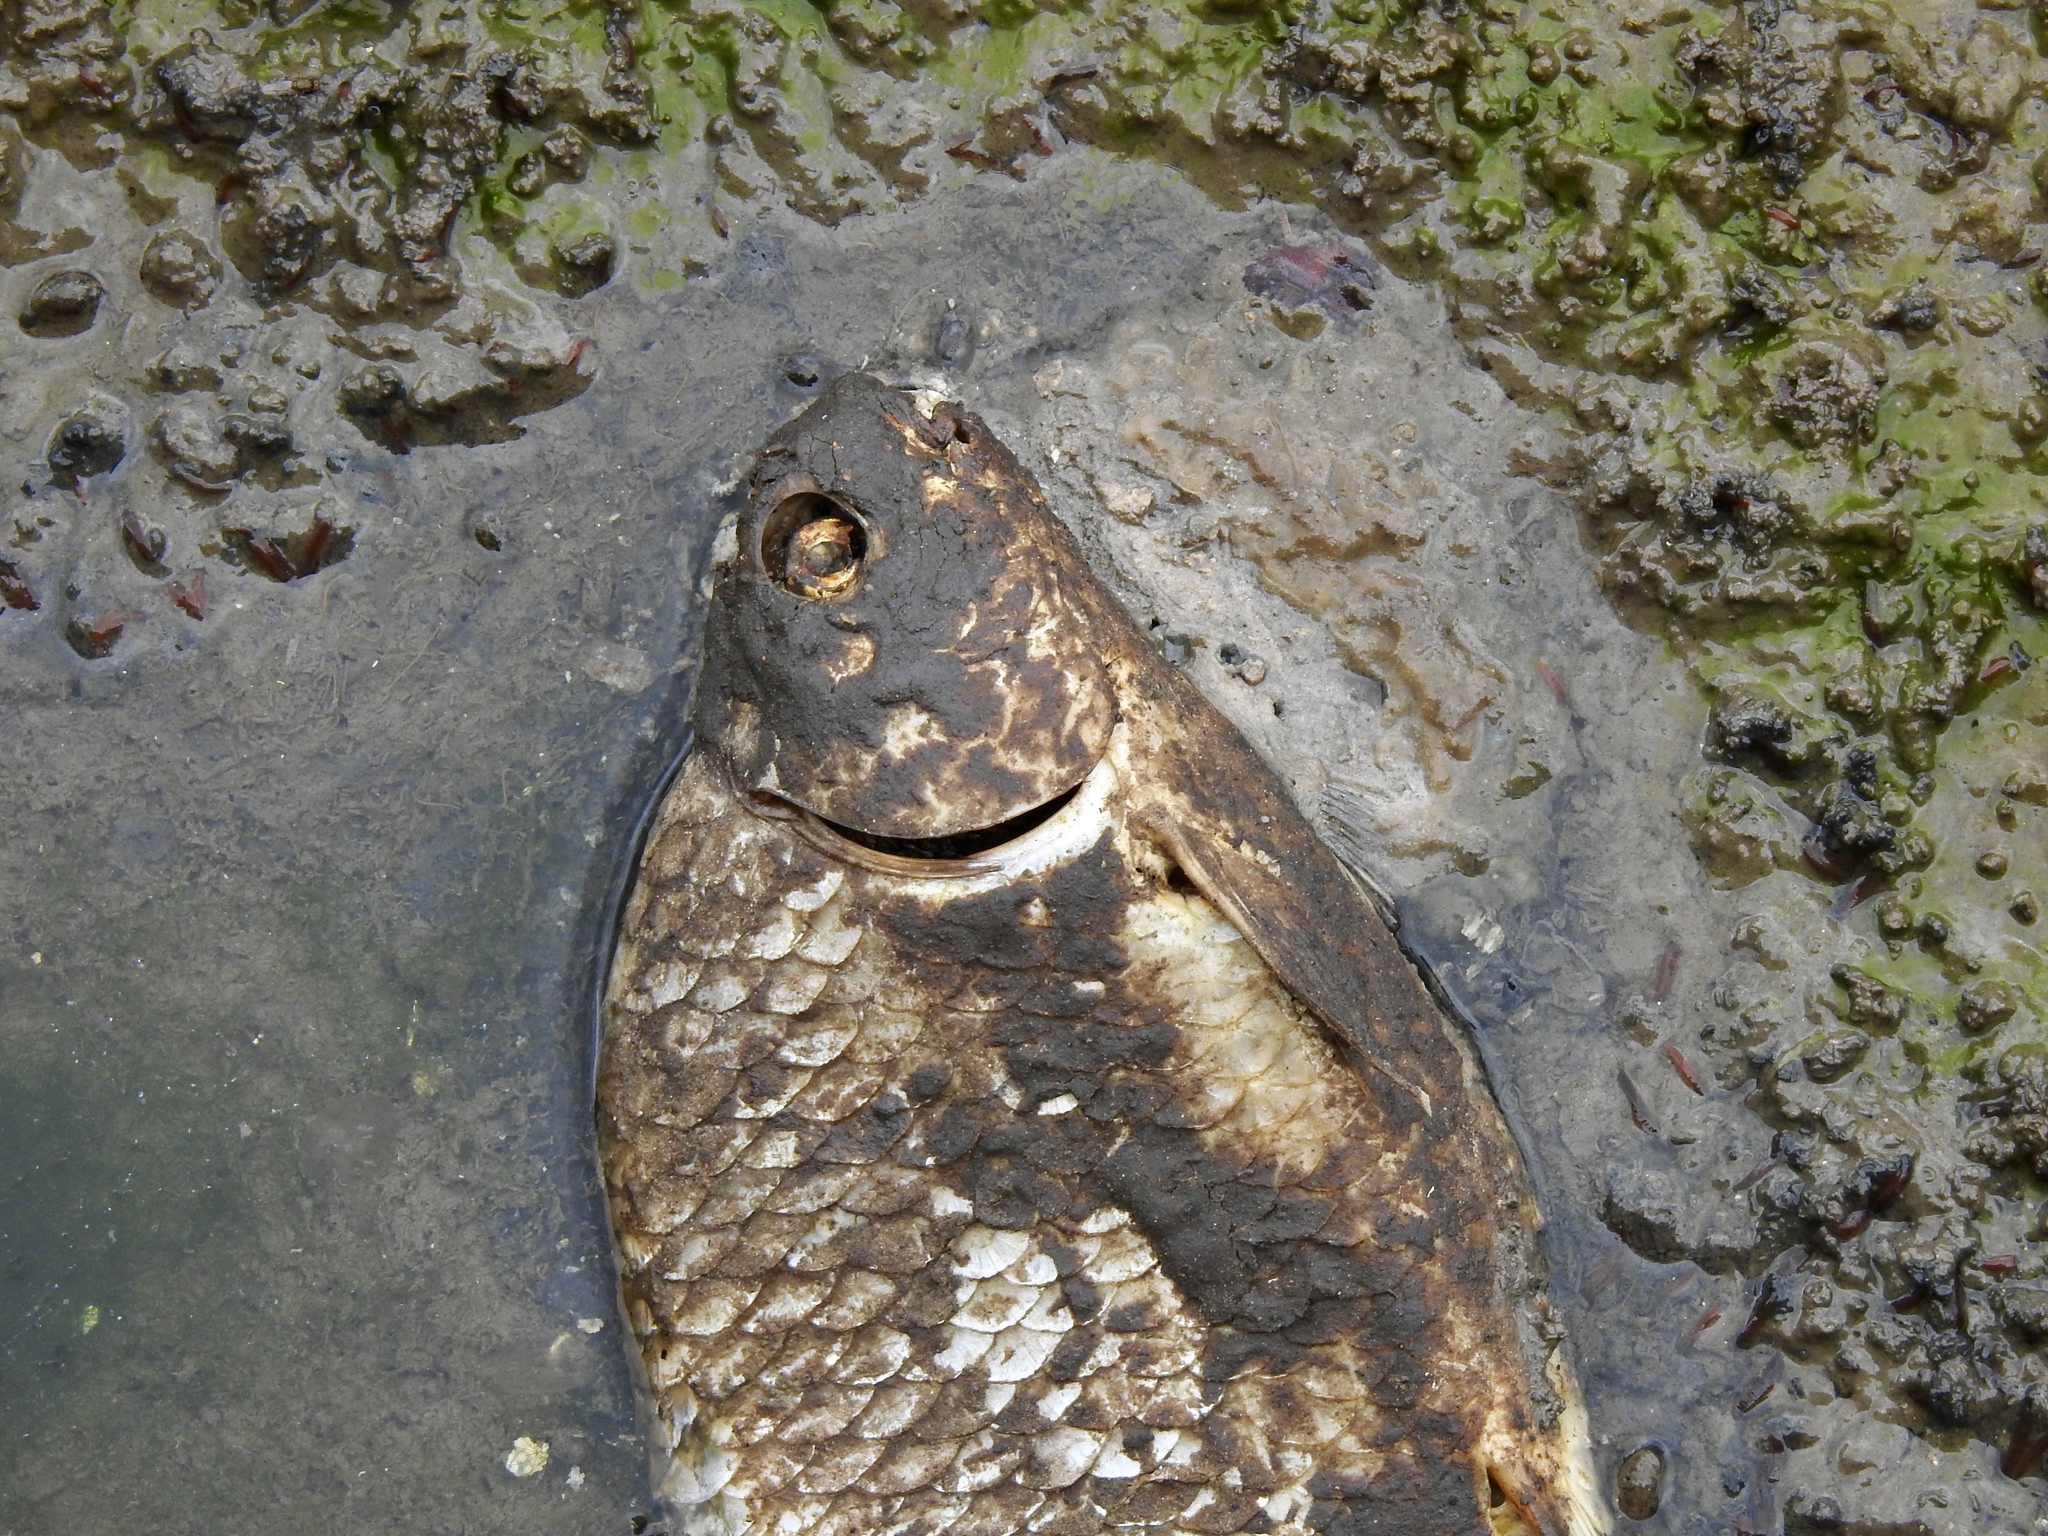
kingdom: Animalia
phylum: Chordata
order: Cypriniformes
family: Catostomidae
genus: Carpiodes
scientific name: Carpiodes cyprinus
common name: Quillback
